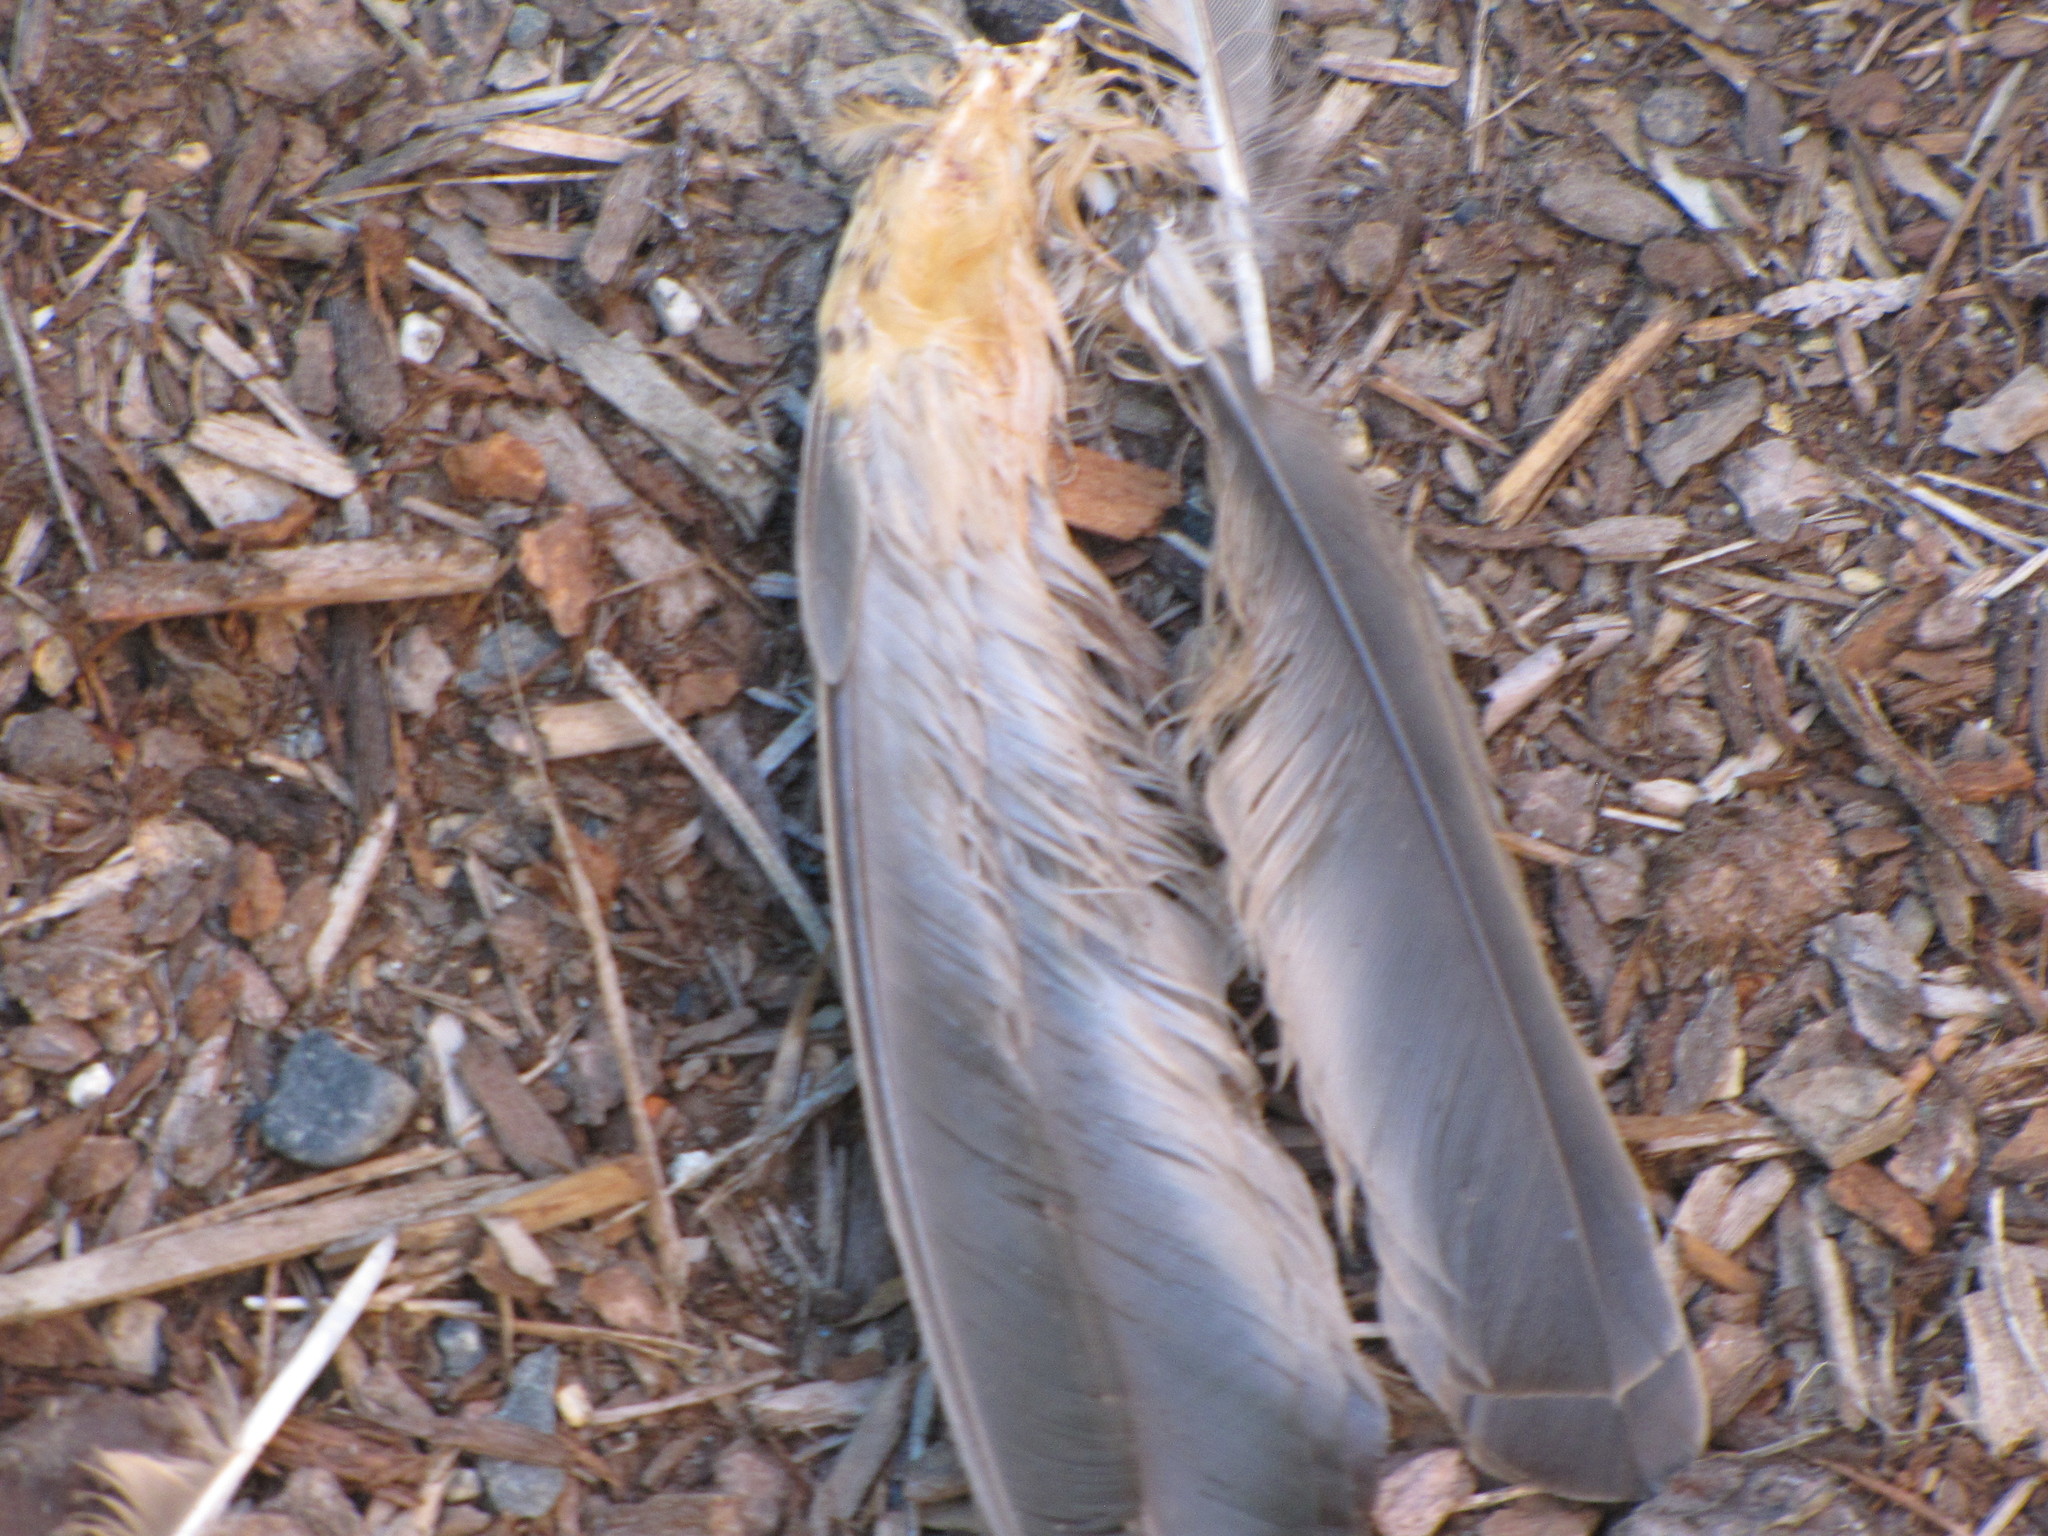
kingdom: Animalia
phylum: Chordata
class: Aves
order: Passeriformes
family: Turdidae
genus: Turdus
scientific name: Turdus migratorius
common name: American robin
